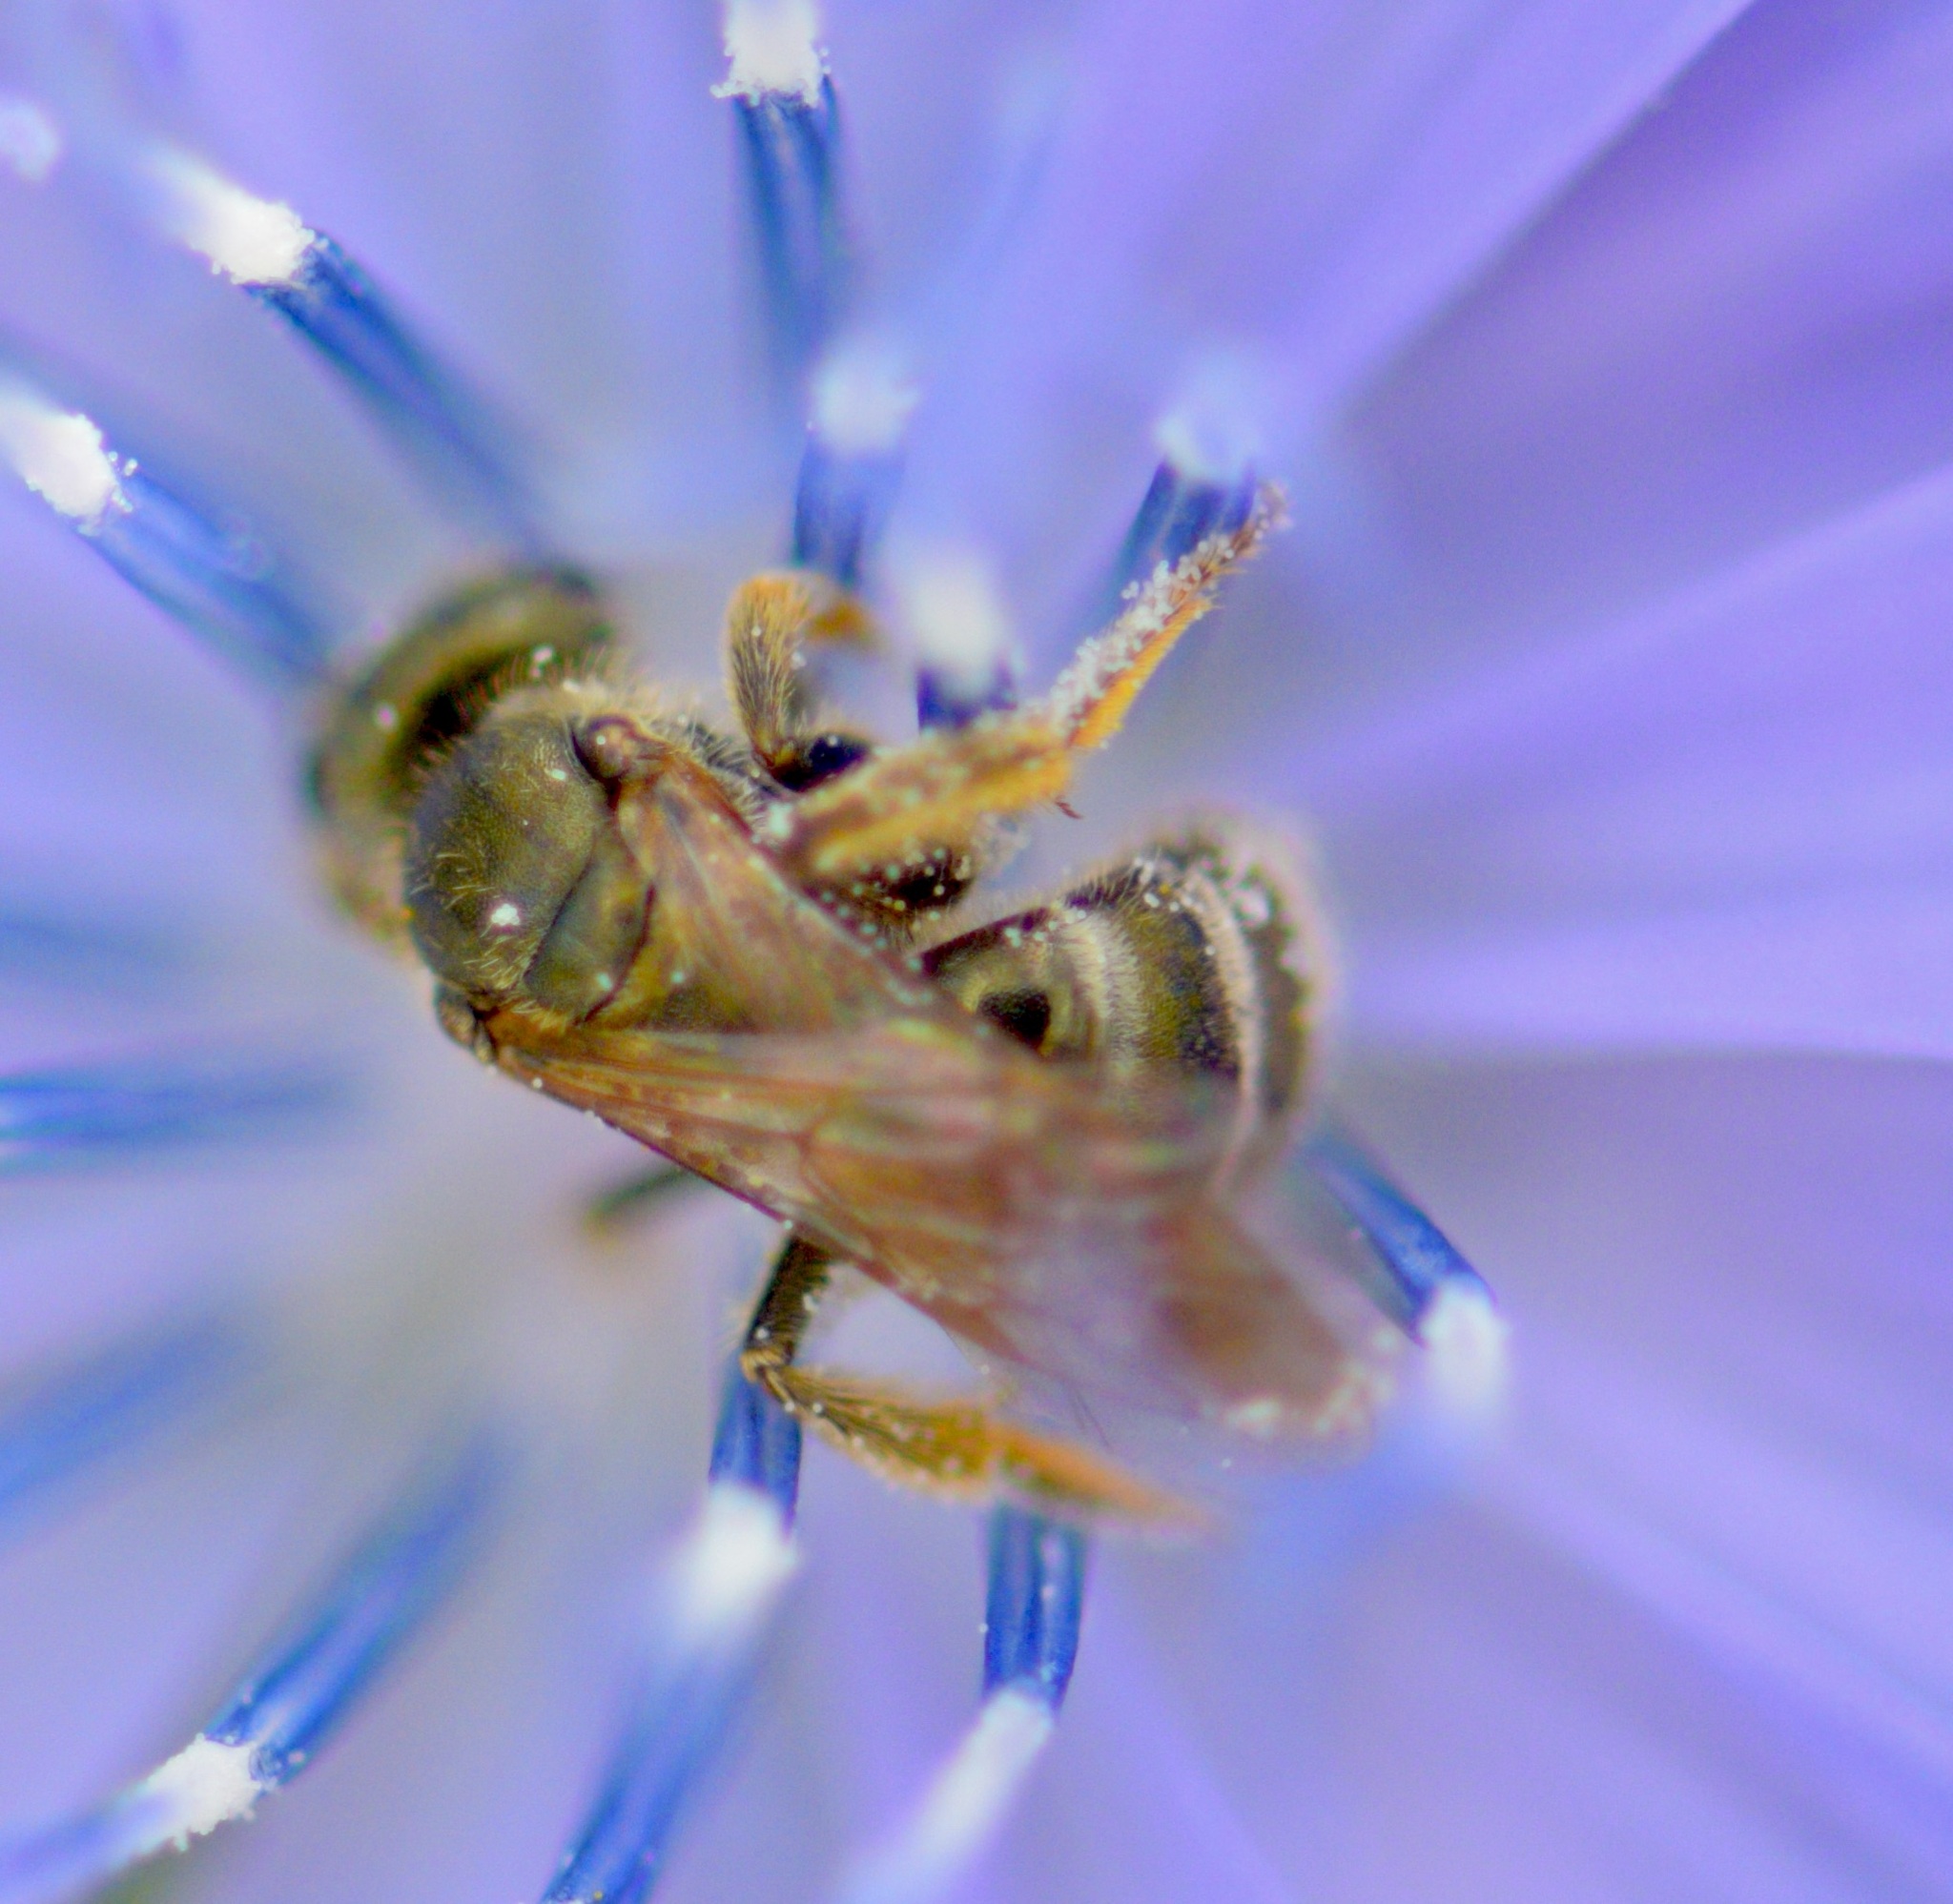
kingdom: Animalia
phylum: Arthropoda
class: Insecta
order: Hymenoptera
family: Halictidae
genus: Halictus
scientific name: Halictus confusus
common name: Southern bronze furrow bee
